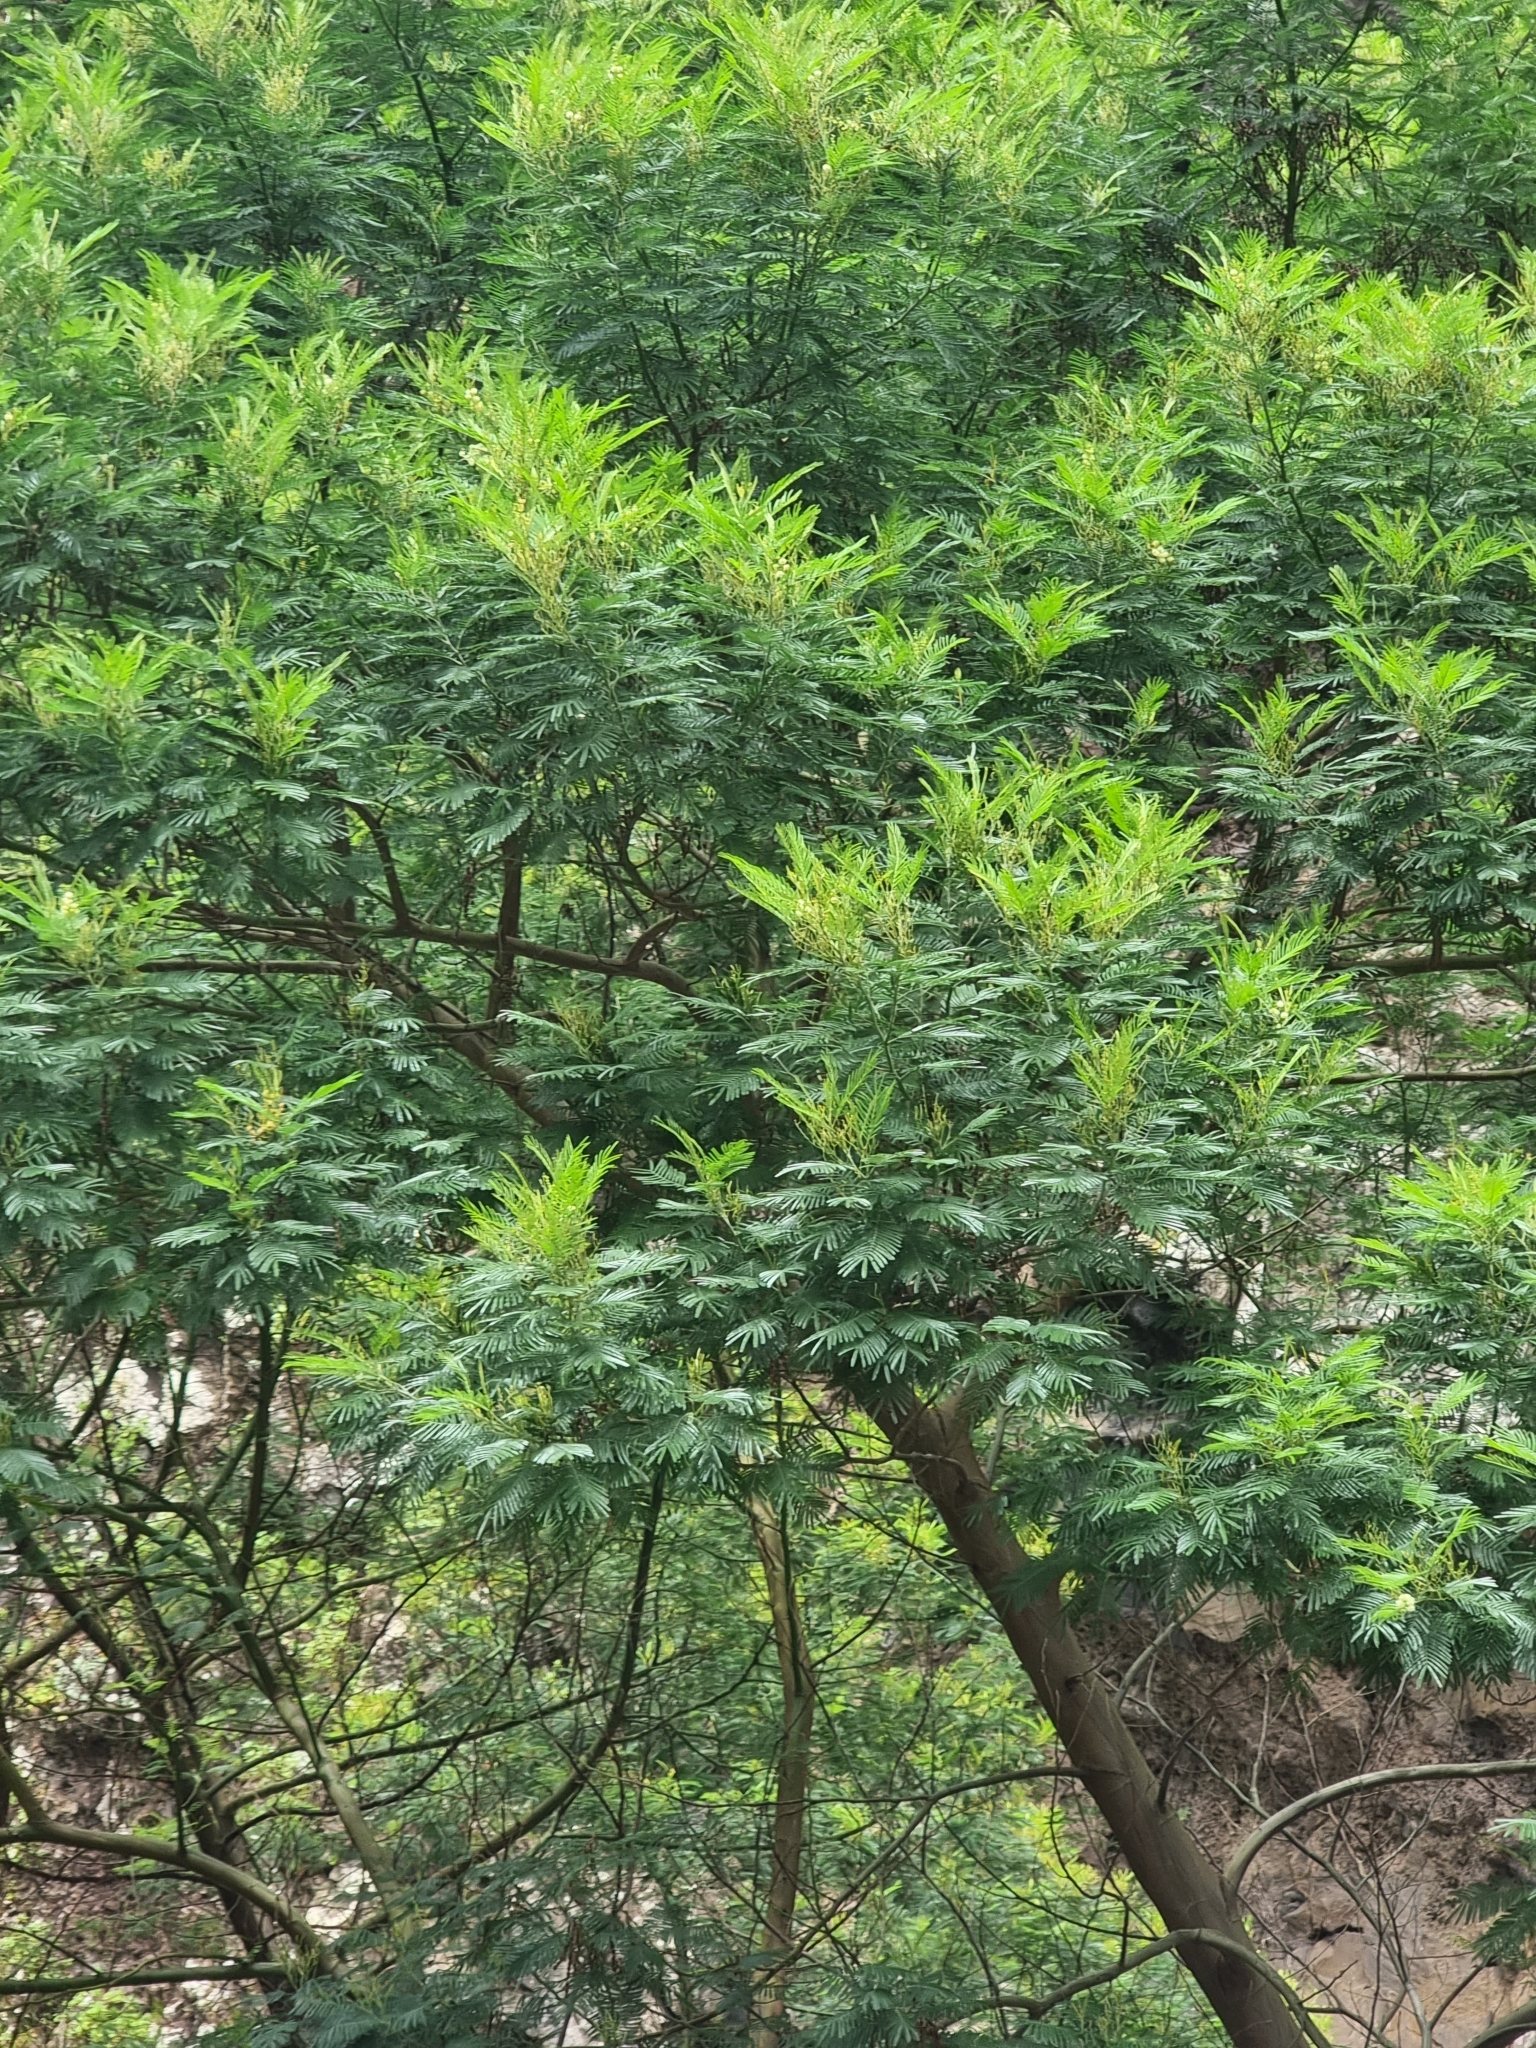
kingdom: Plantae
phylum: Tracheophyta
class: Magnoliopsida
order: Fabales
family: Fabaceae
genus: Acacia
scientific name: Acacia mearnsii
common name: Black wattle
